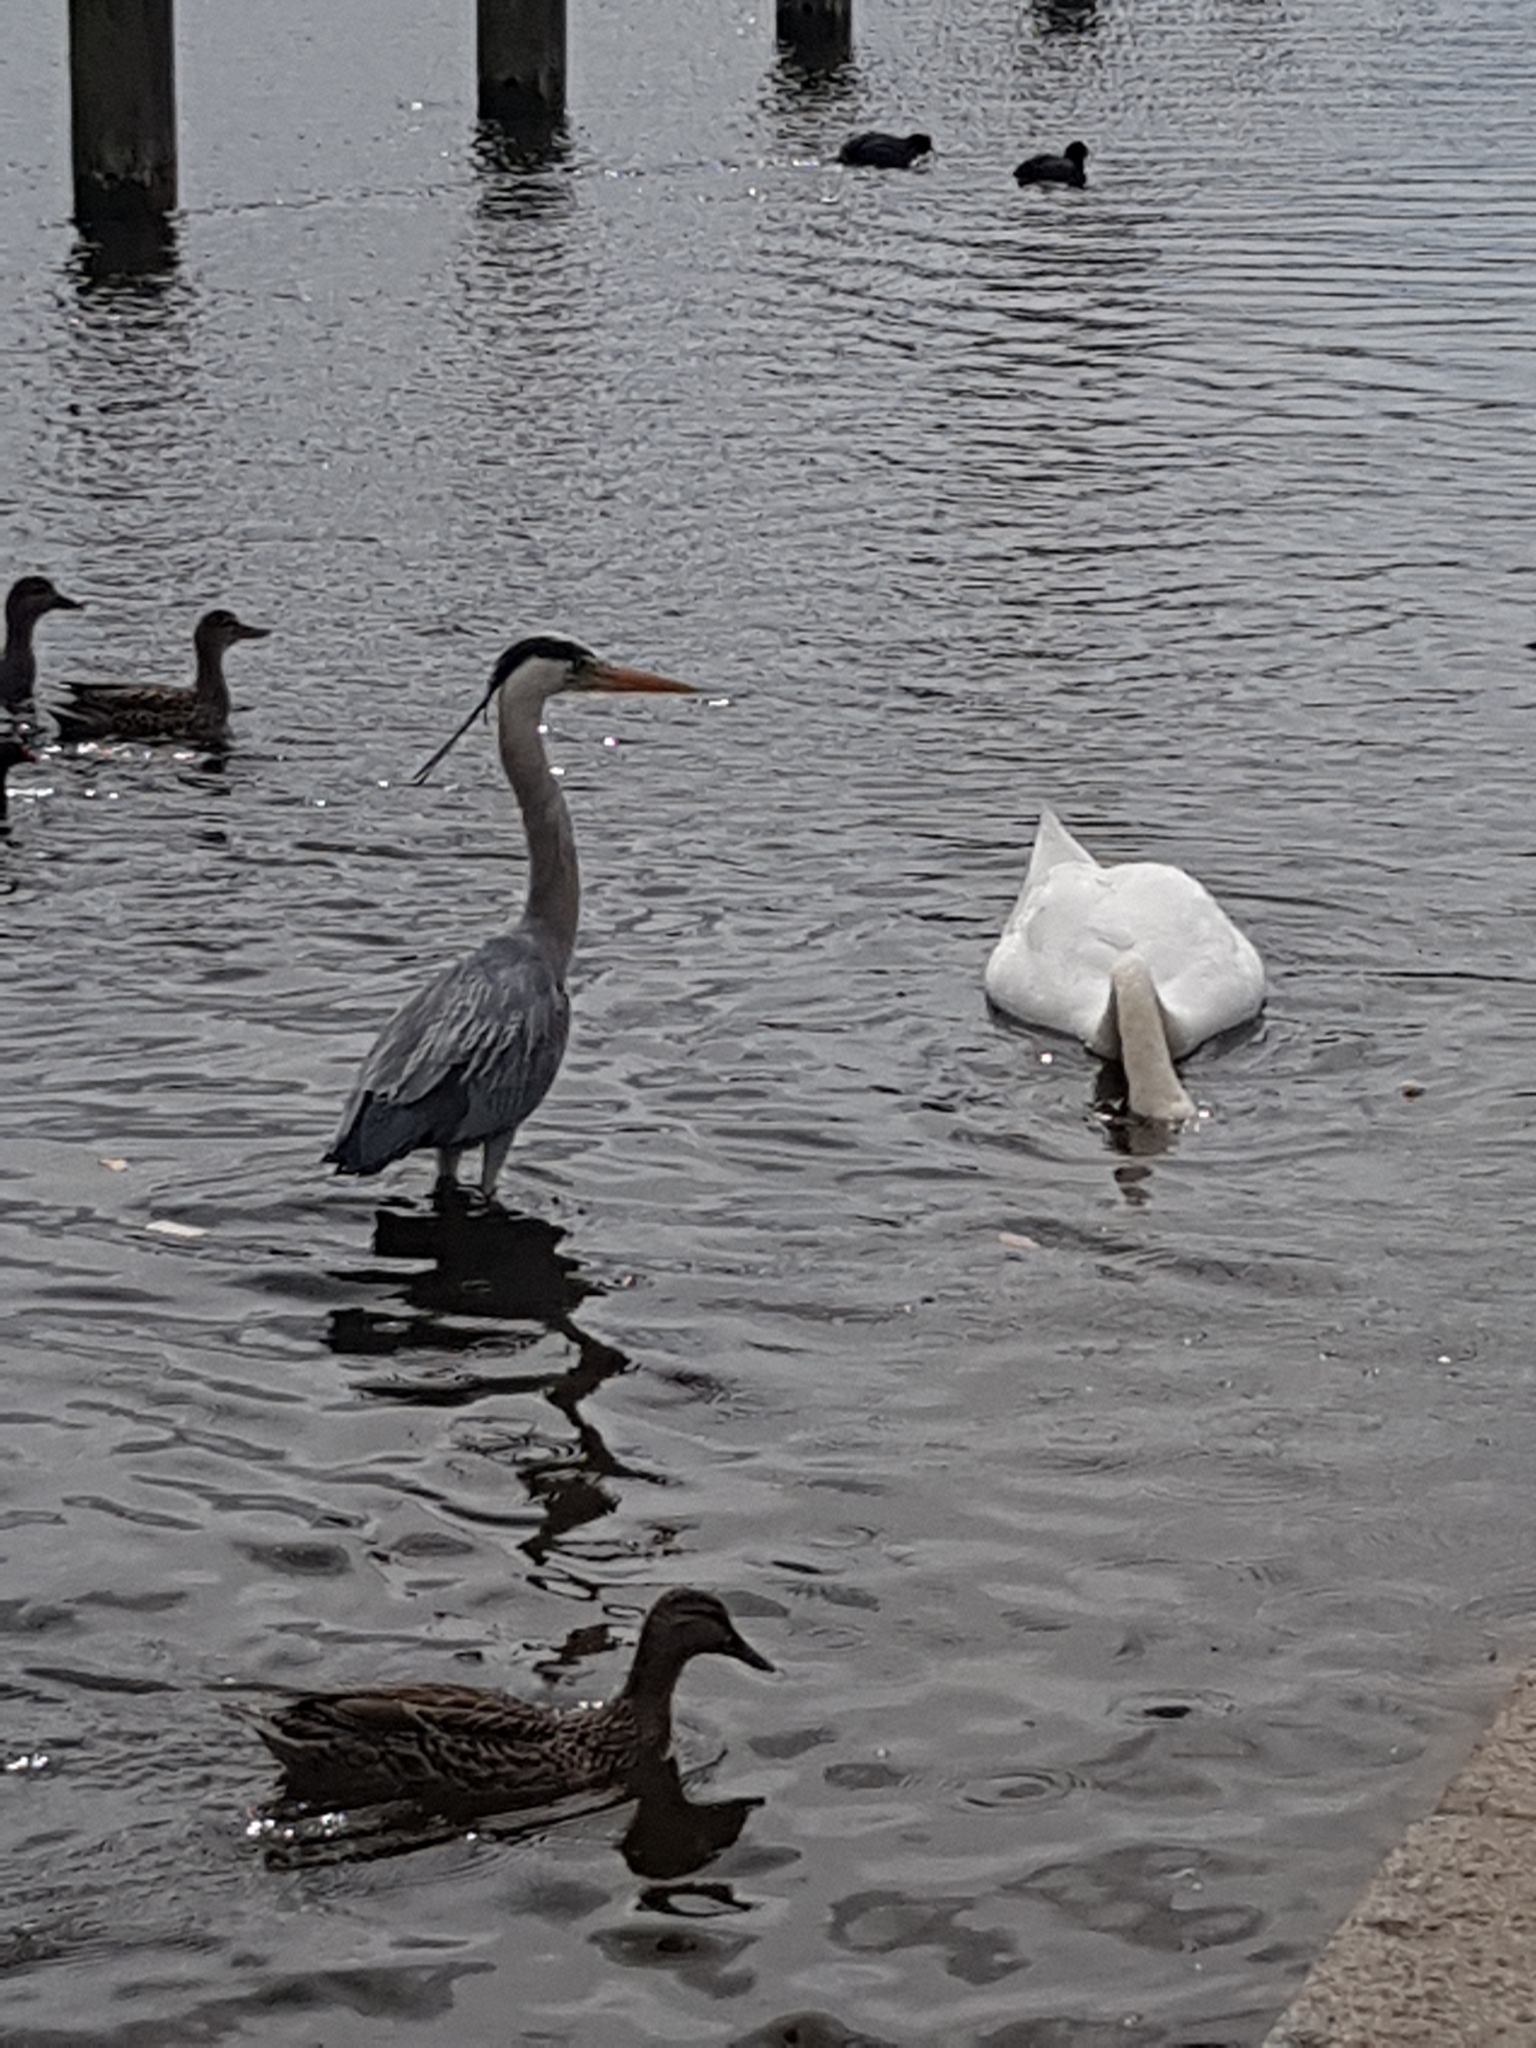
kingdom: Animalia
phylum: Chordata
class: Aves
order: Pelecaniformes
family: Ardeidae
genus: Ardea
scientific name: Ardea cinerea
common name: Grey heron
